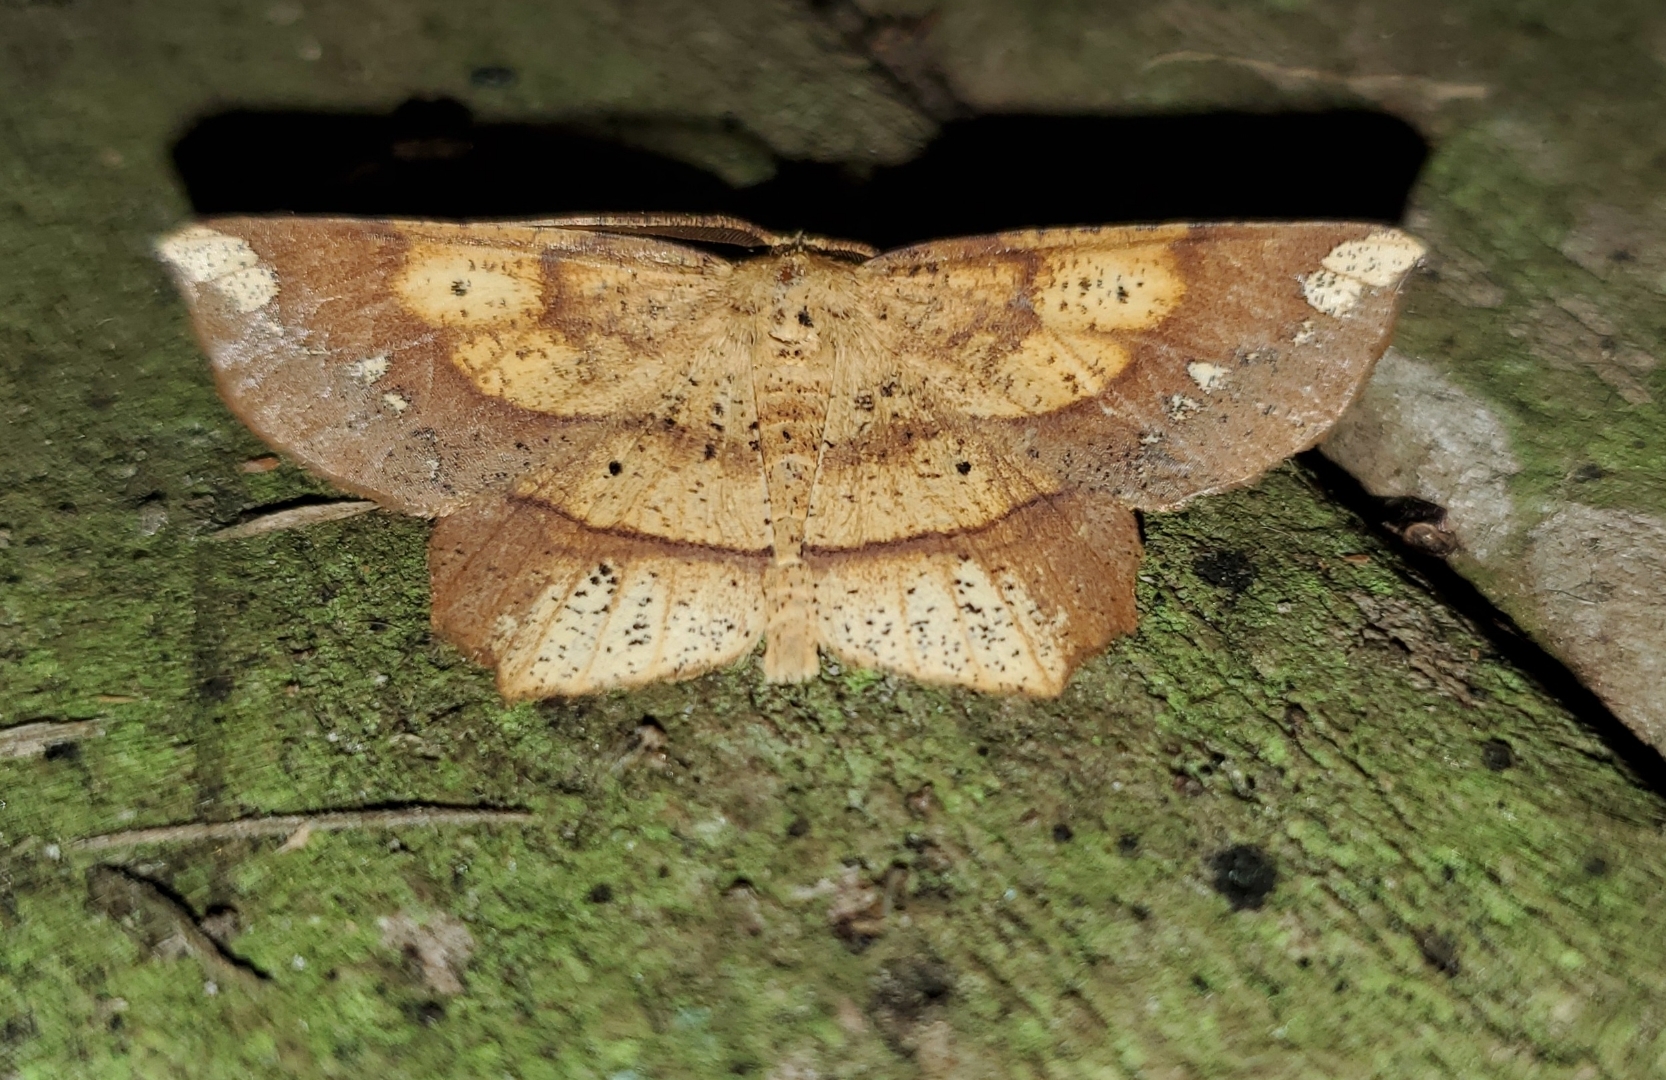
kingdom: Animalia
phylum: Arthropoda
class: Insecta
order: Lepidoptera
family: Geometridae
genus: Euchlaena
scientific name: Euchlaena amoenaria
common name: Deep yellow euchlaena
